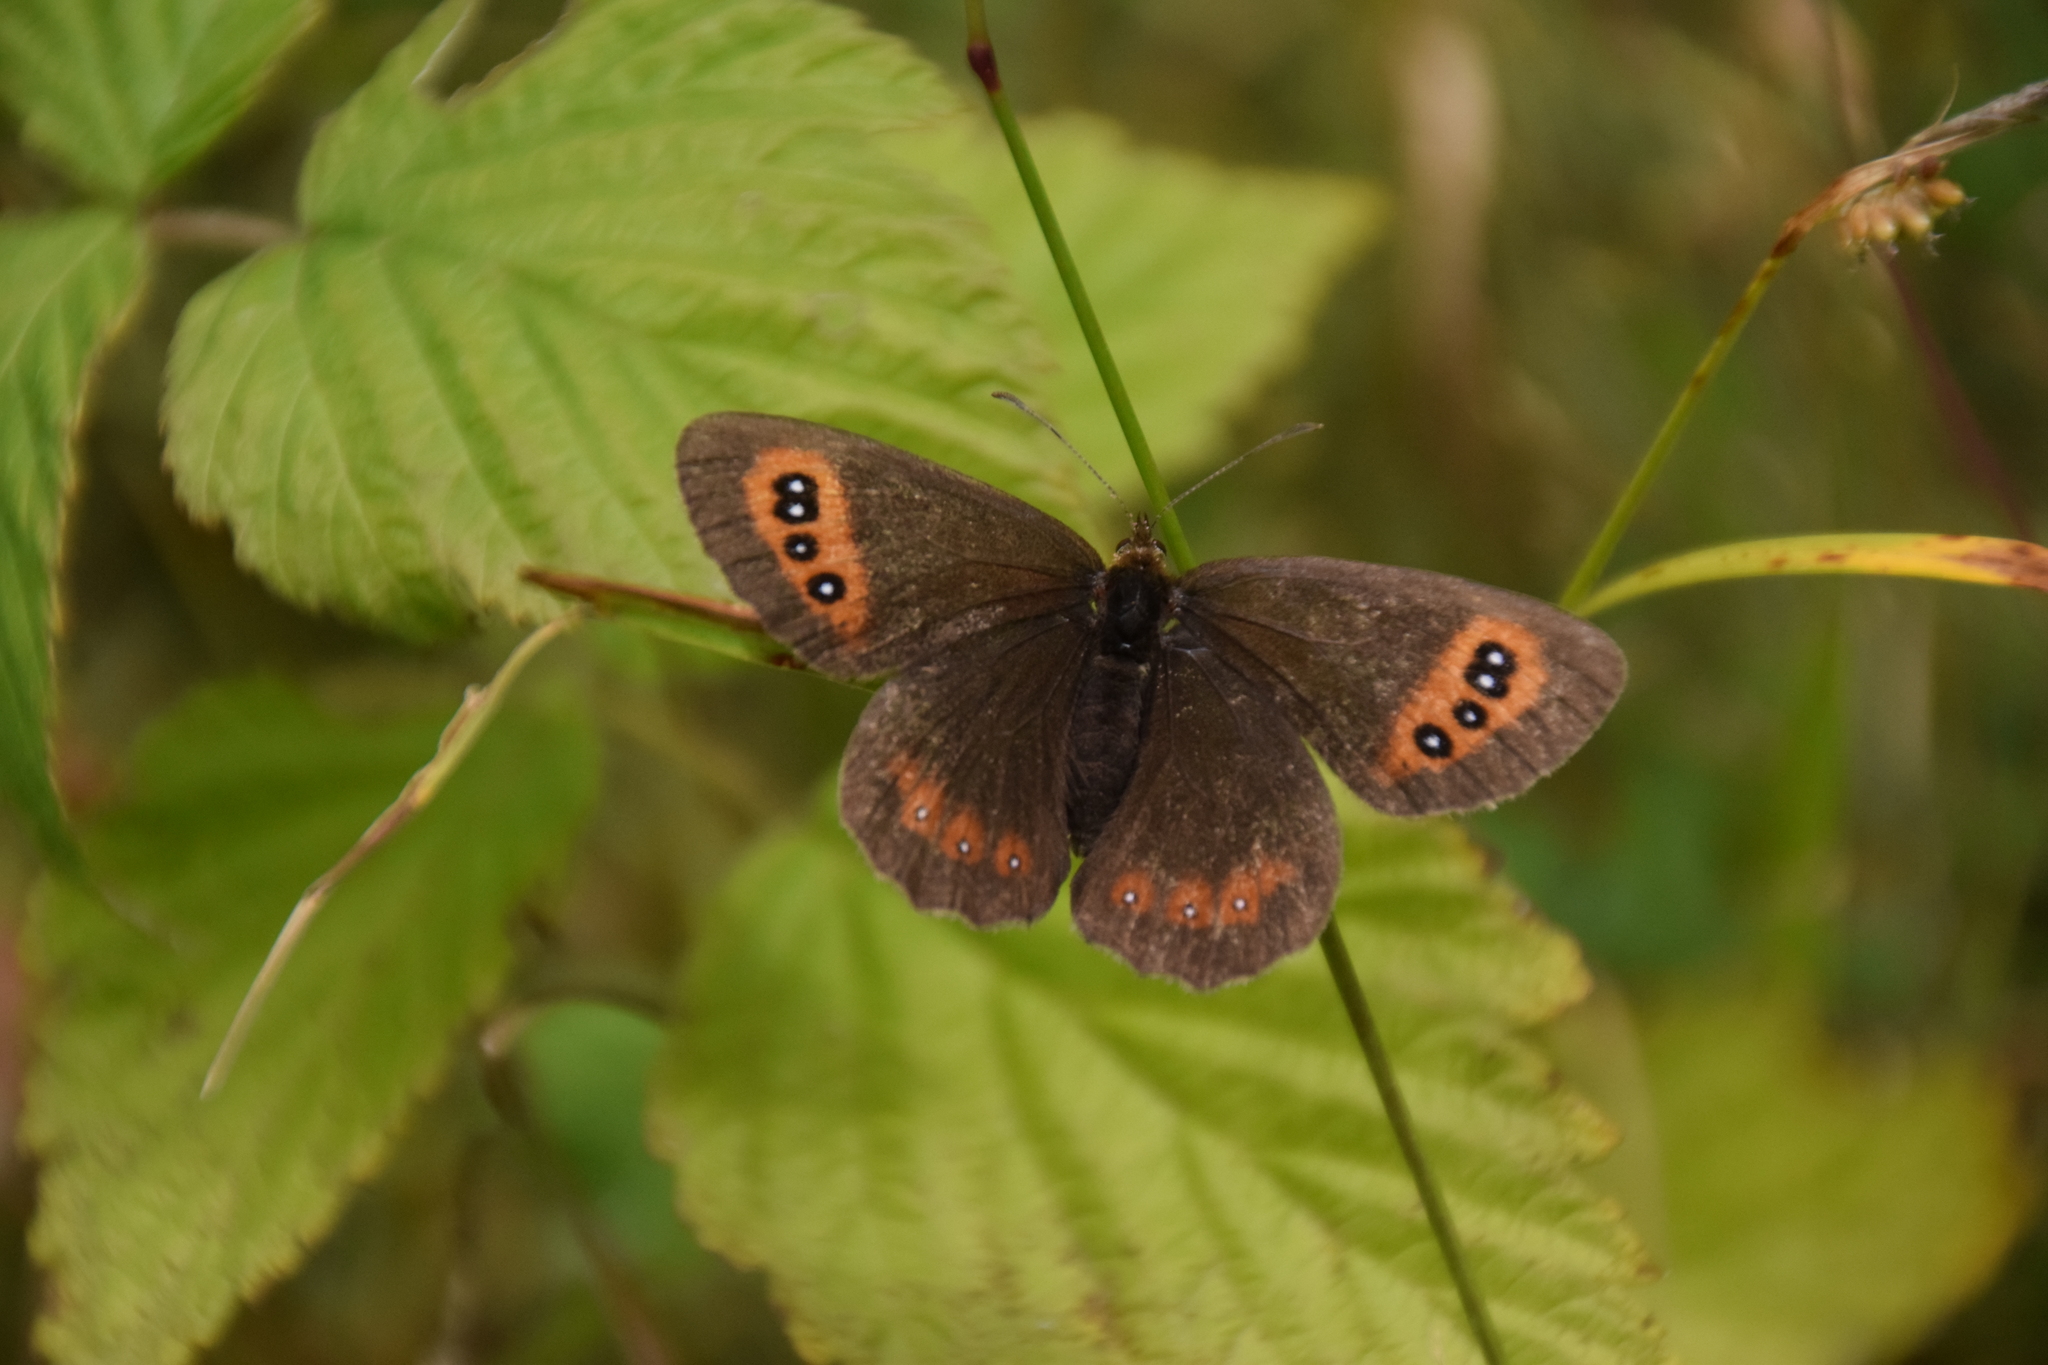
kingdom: Animalia
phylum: Arthropoda
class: Insecta
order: Lepidoptera
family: Nymphalidae
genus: Erebia
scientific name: Erebia aethiops
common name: Scotch argus
